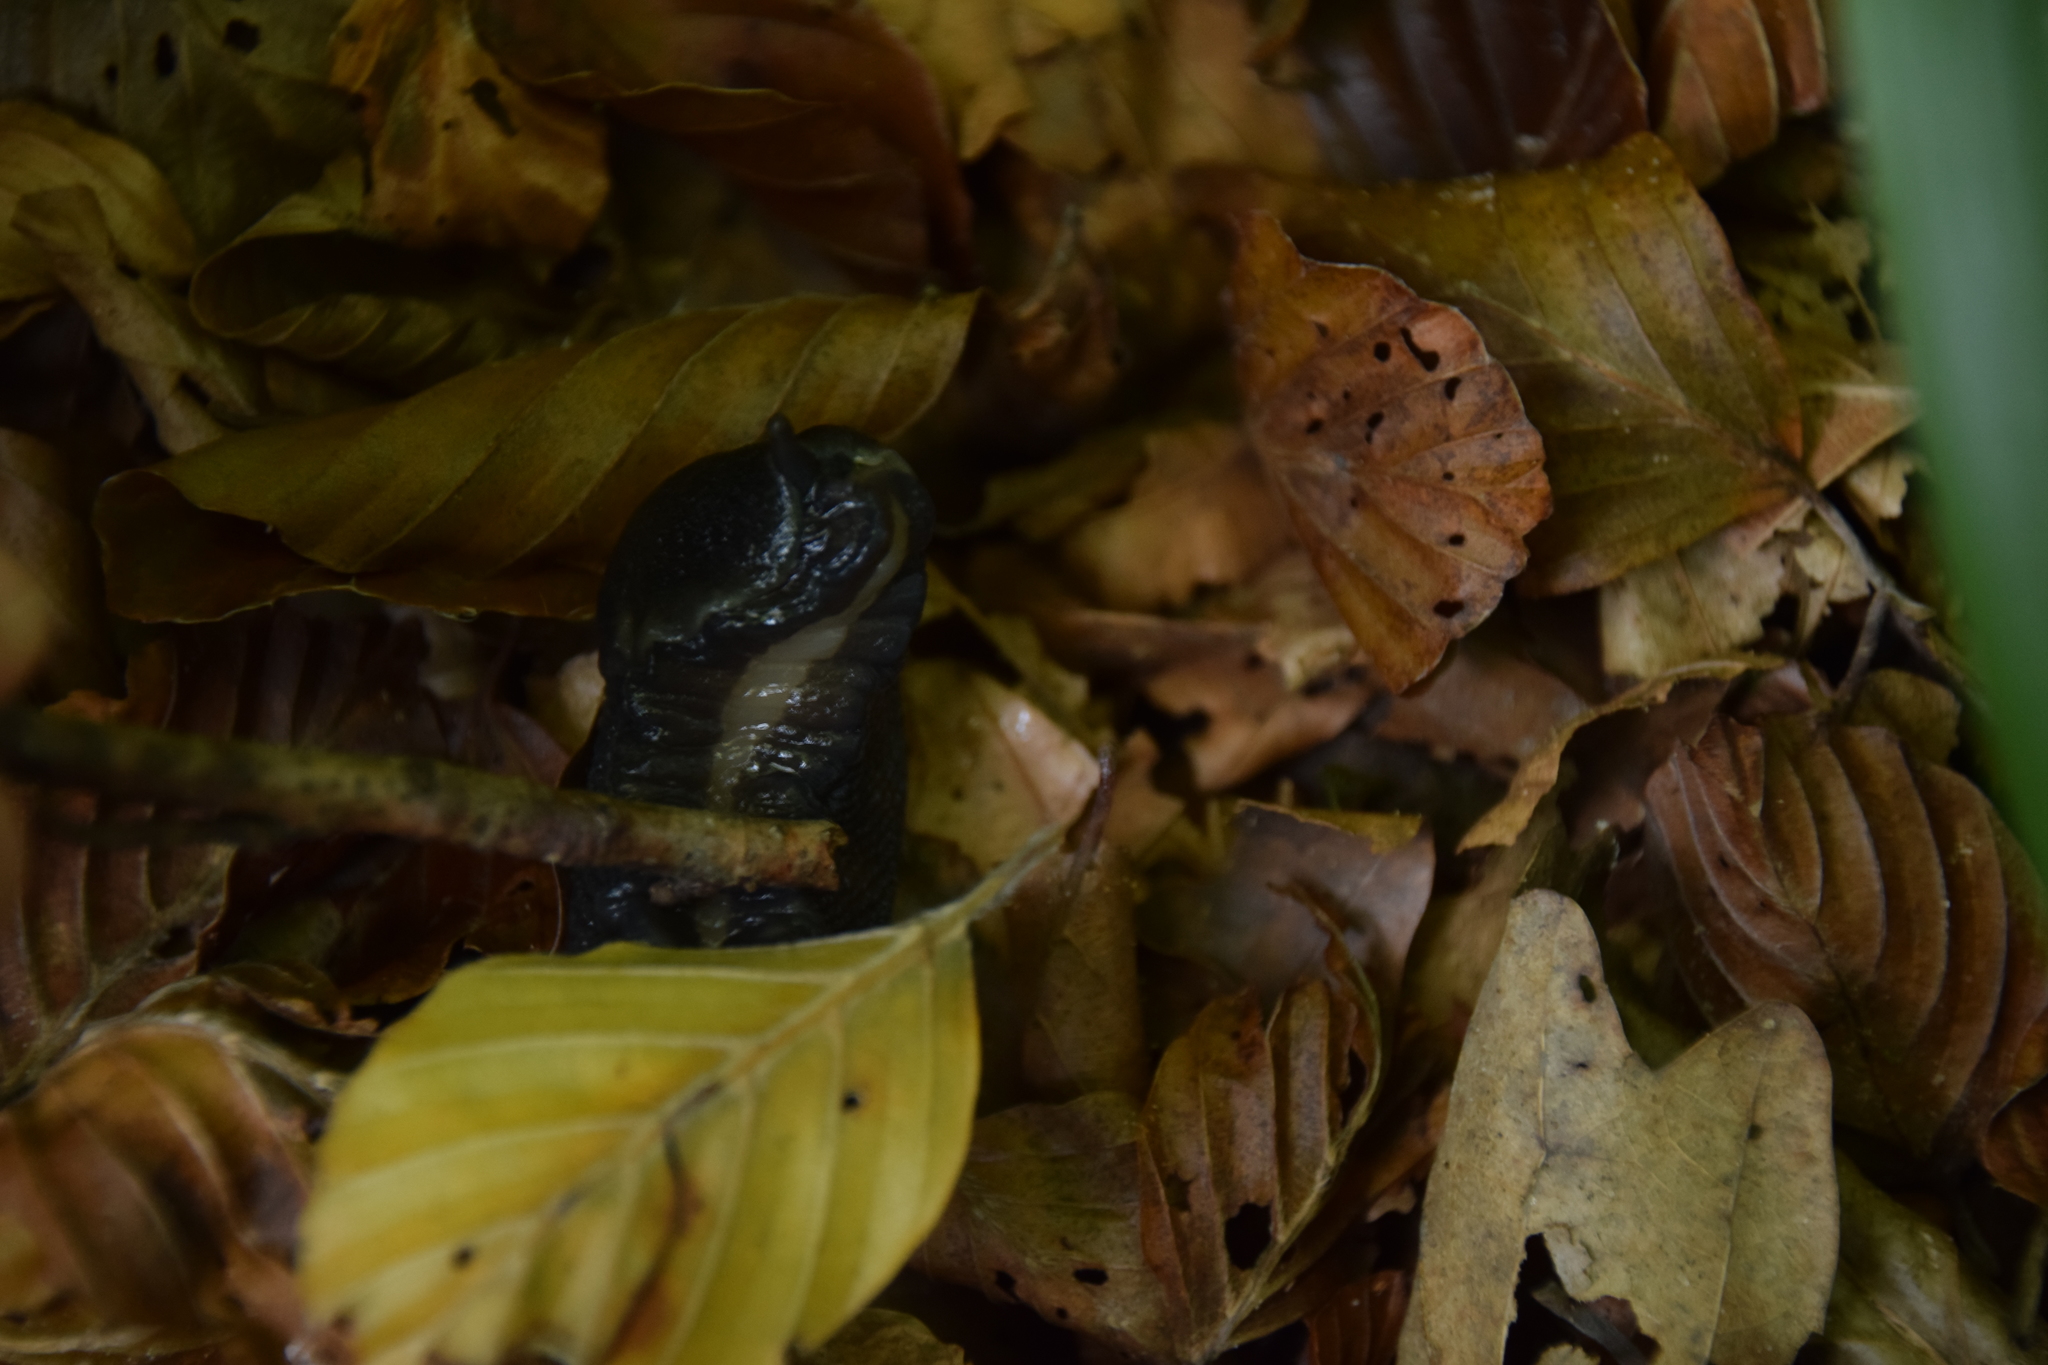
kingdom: Animalia
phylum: Mollusca
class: Gastropoda
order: Stylommatophora
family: Limacidae
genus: Limax
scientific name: Limax cinereoniger
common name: Ash-black slug
